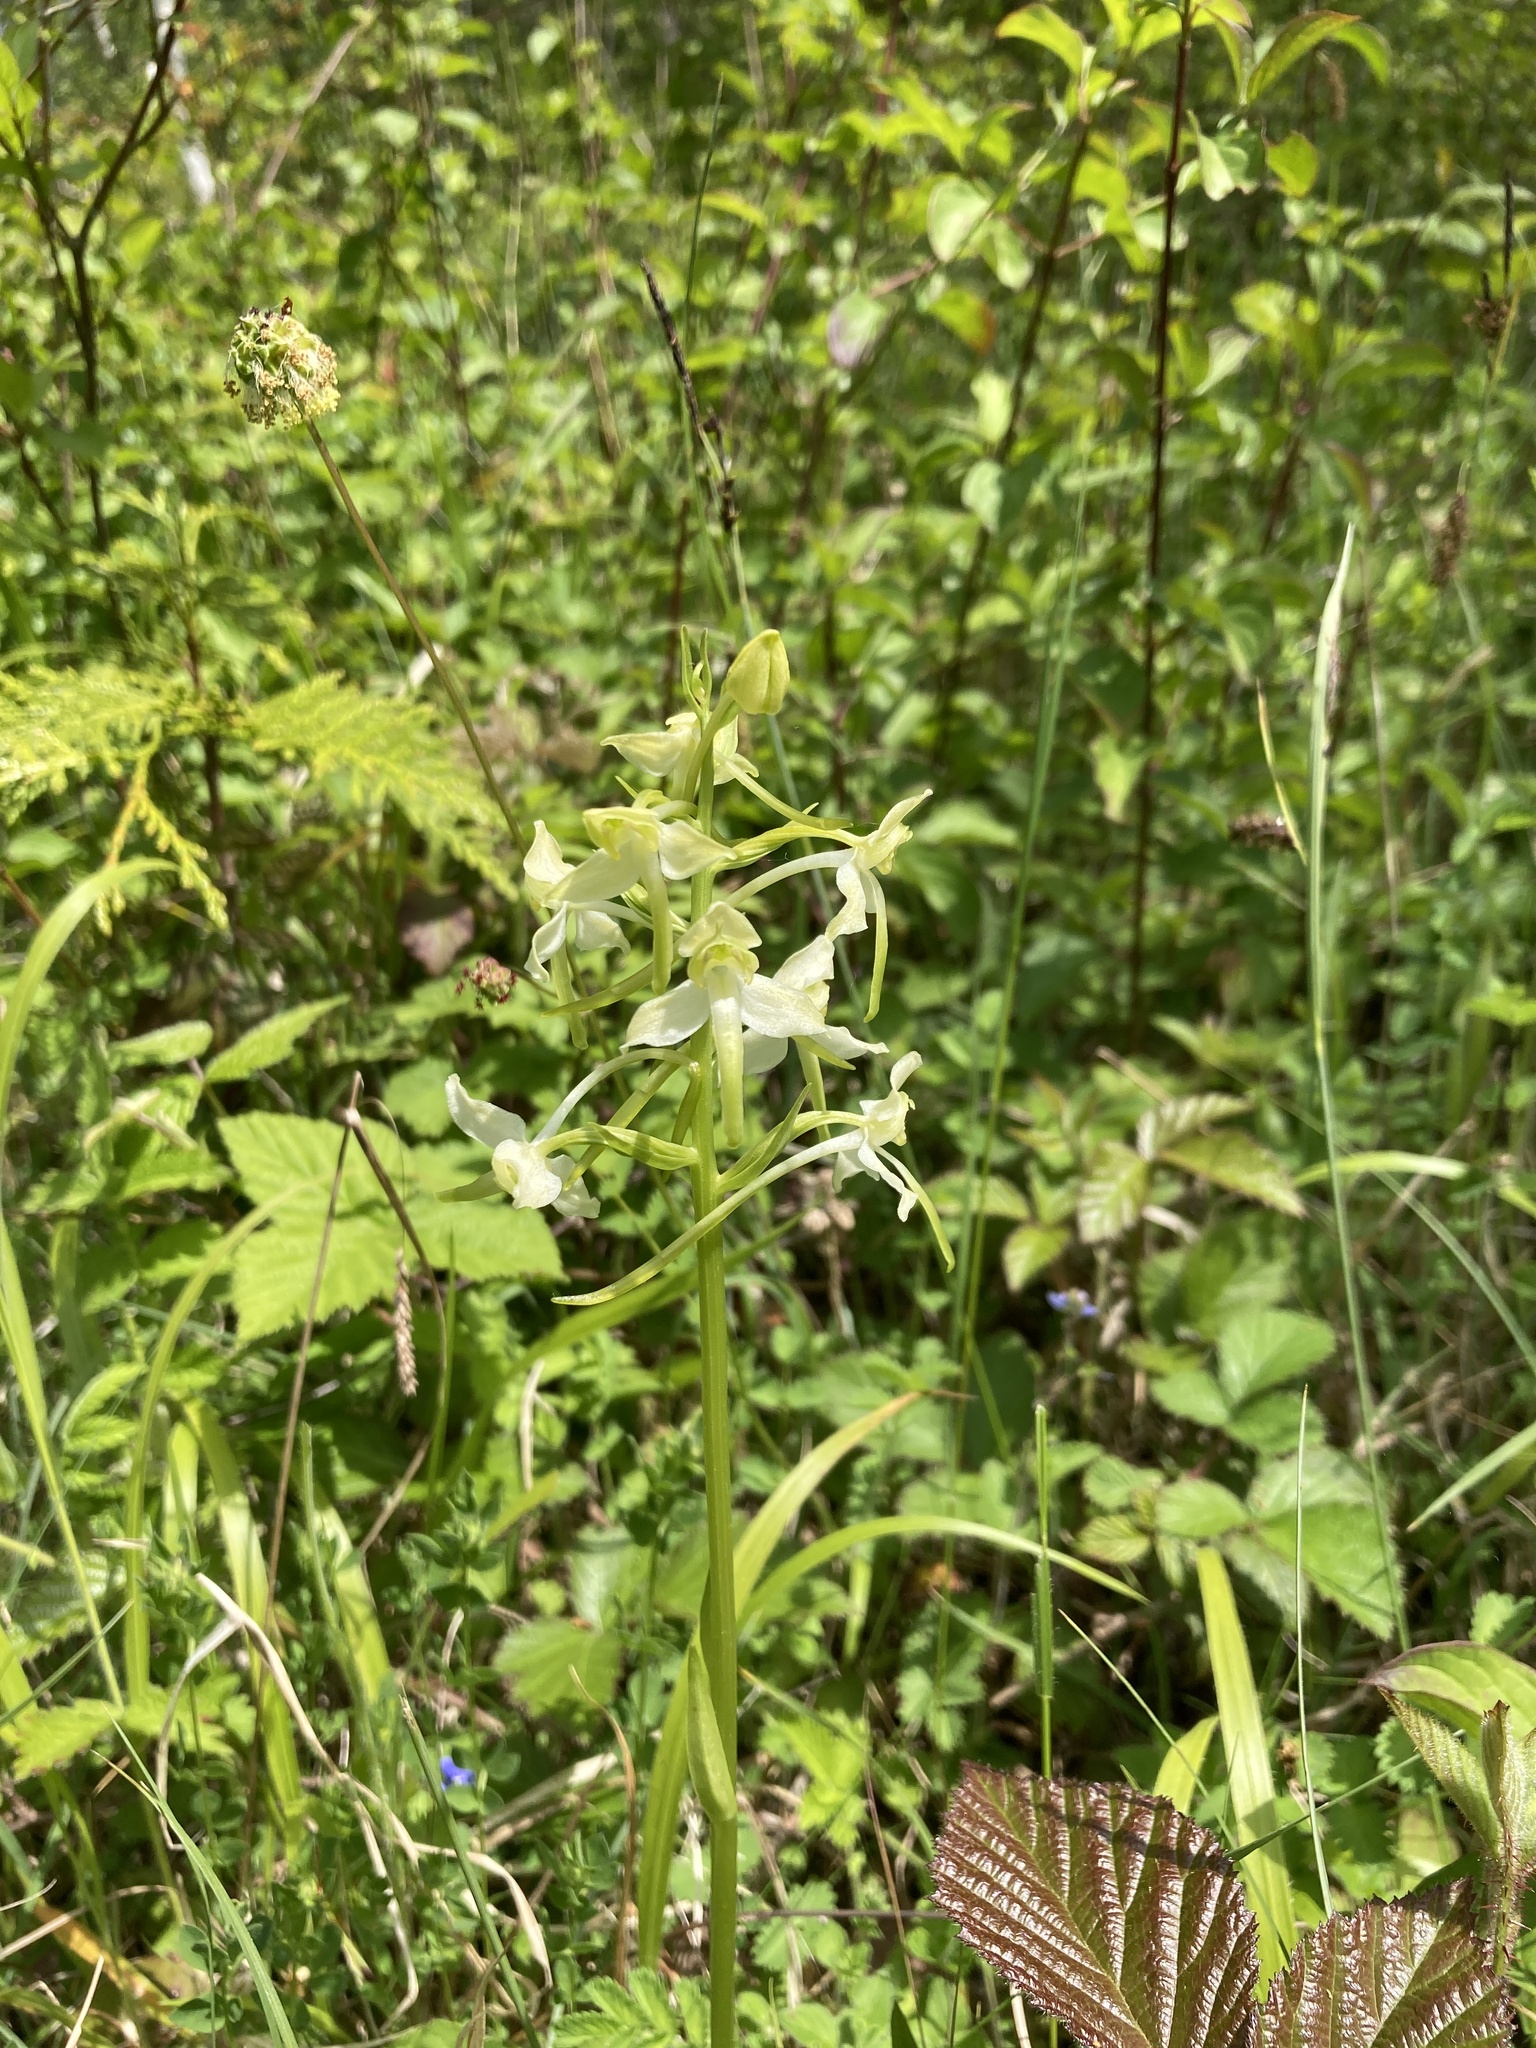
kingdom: Plantae
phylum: Tracheophyta
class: Liliopsida
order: Asparagales
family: Orchidaceae
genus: Platanthera
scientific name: Platanthera chlorantha
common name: Greater butterfly-orchid
